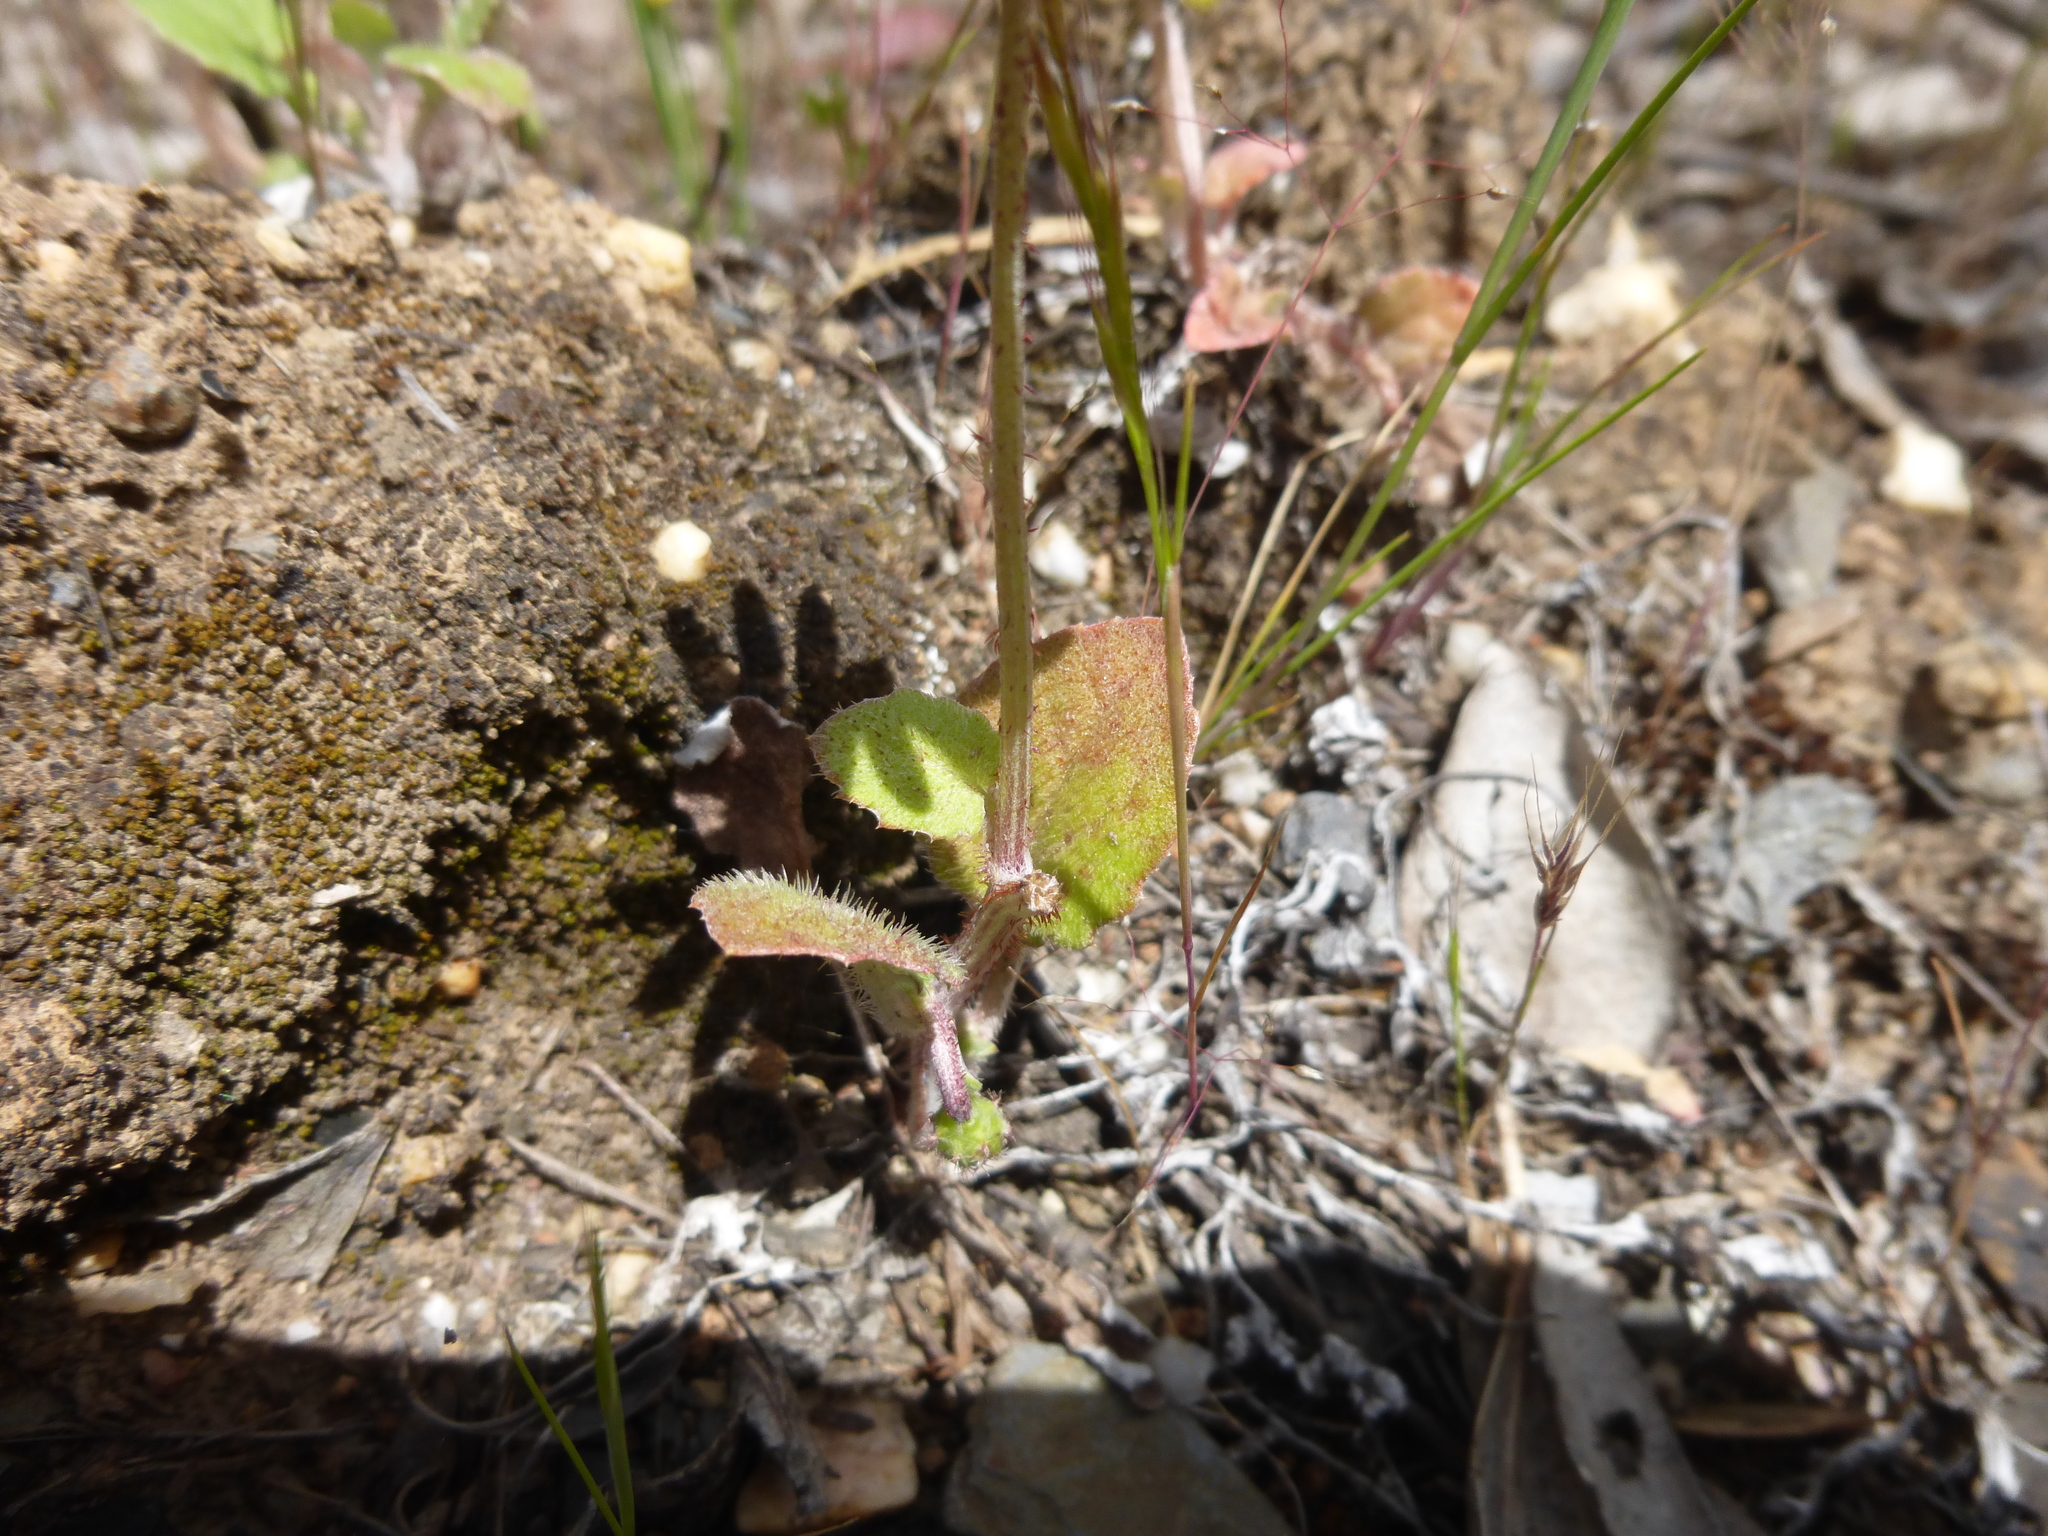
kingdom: Plantae
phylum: Tracheophyta
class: Magnoliopsida
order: Asterales
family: Asteraceae
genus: Arctotheca
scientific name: Arctotheca calendula
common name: Capeweed
